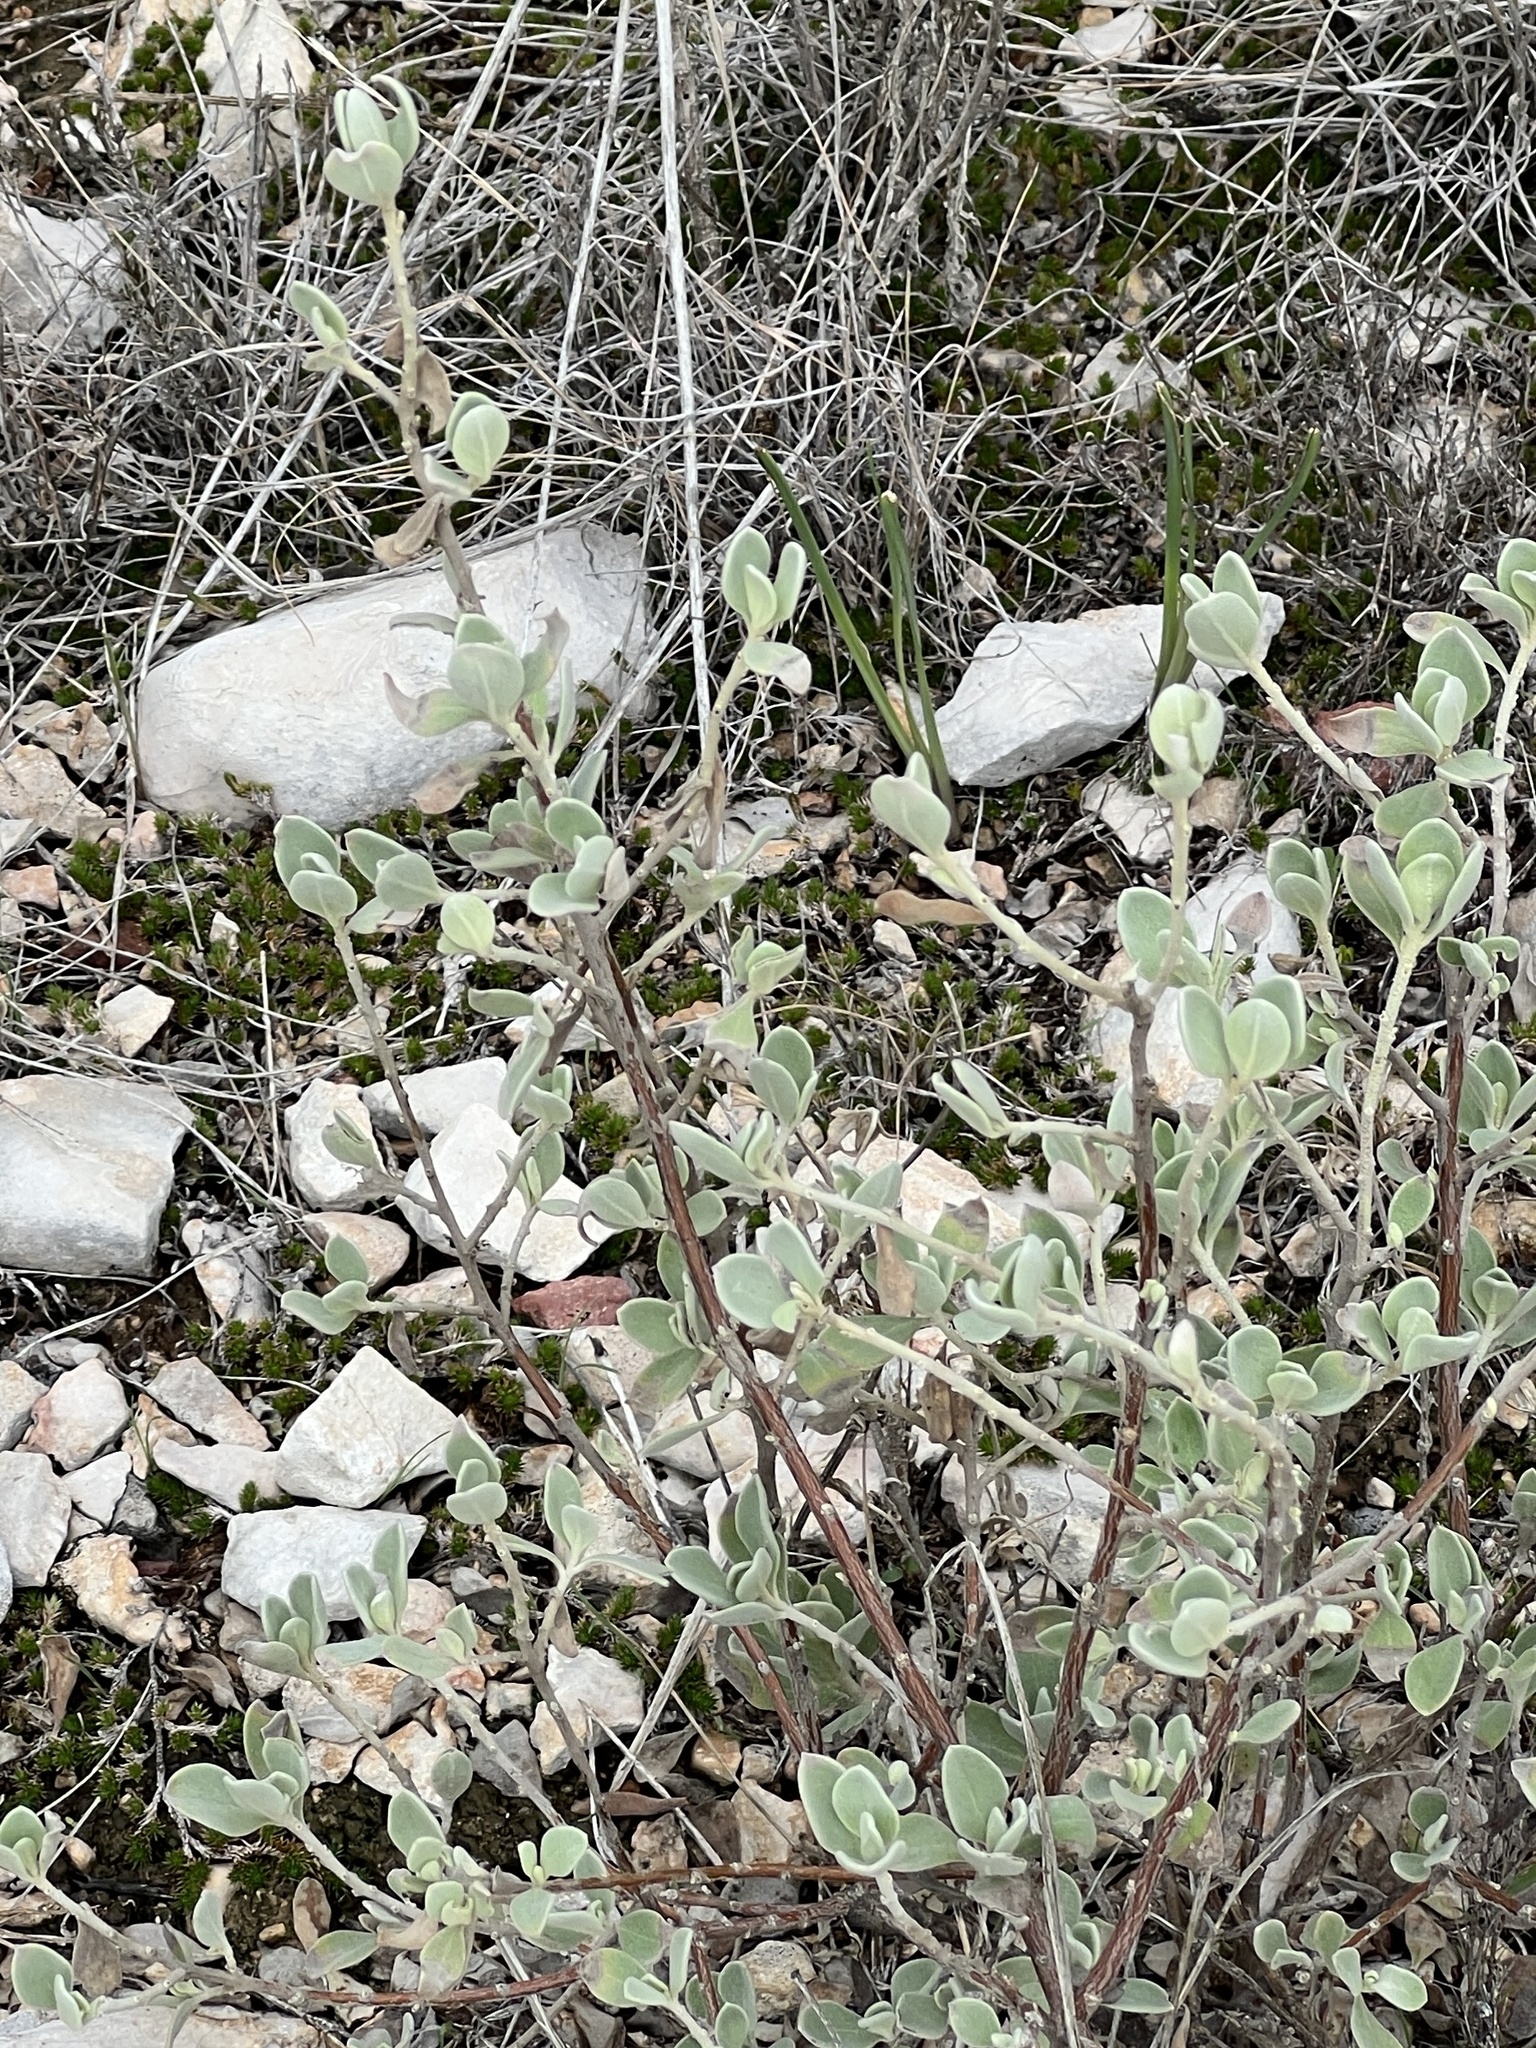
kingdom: Plantae
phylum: Tracheophyta
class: Magnoliopsida
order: Lamiales
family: Scrophulariaceae
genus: Leucophyllum
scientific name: Leucophyllum frutescens
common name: Texas silverleaf
